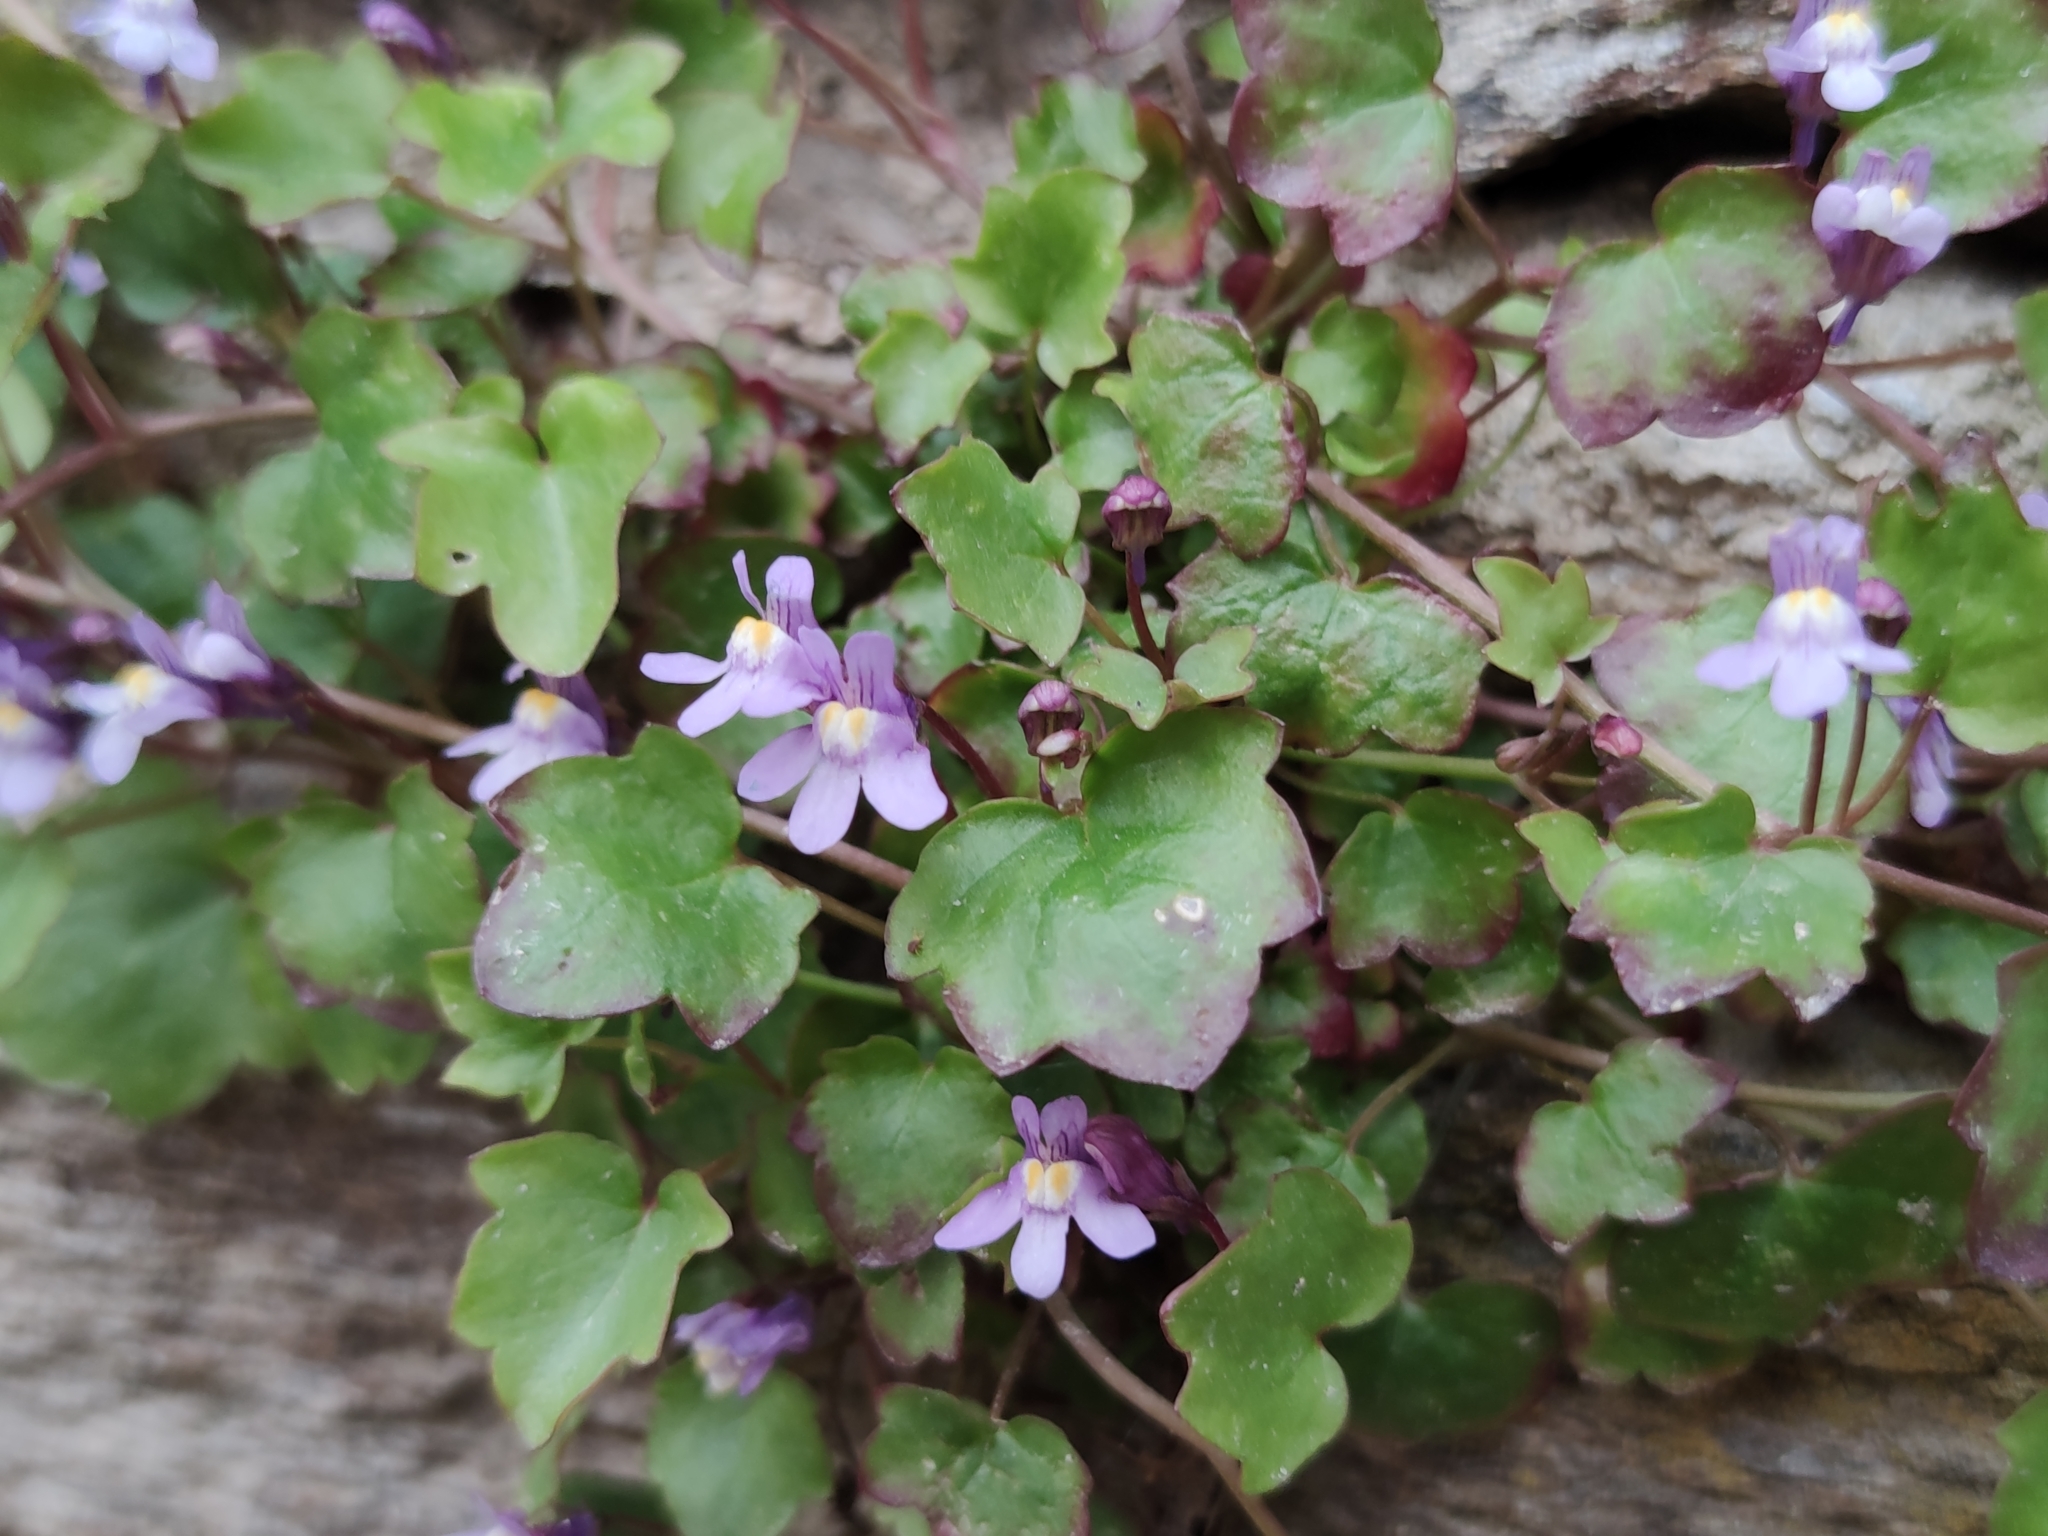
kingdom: Plantae
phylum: Tracheophyta
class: Magnoliopsida
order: Lamiales
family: Plantaginaceae
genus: Cymbalaria
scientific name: Cymbalaria muralis
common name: Ivy-leaved toadflax
